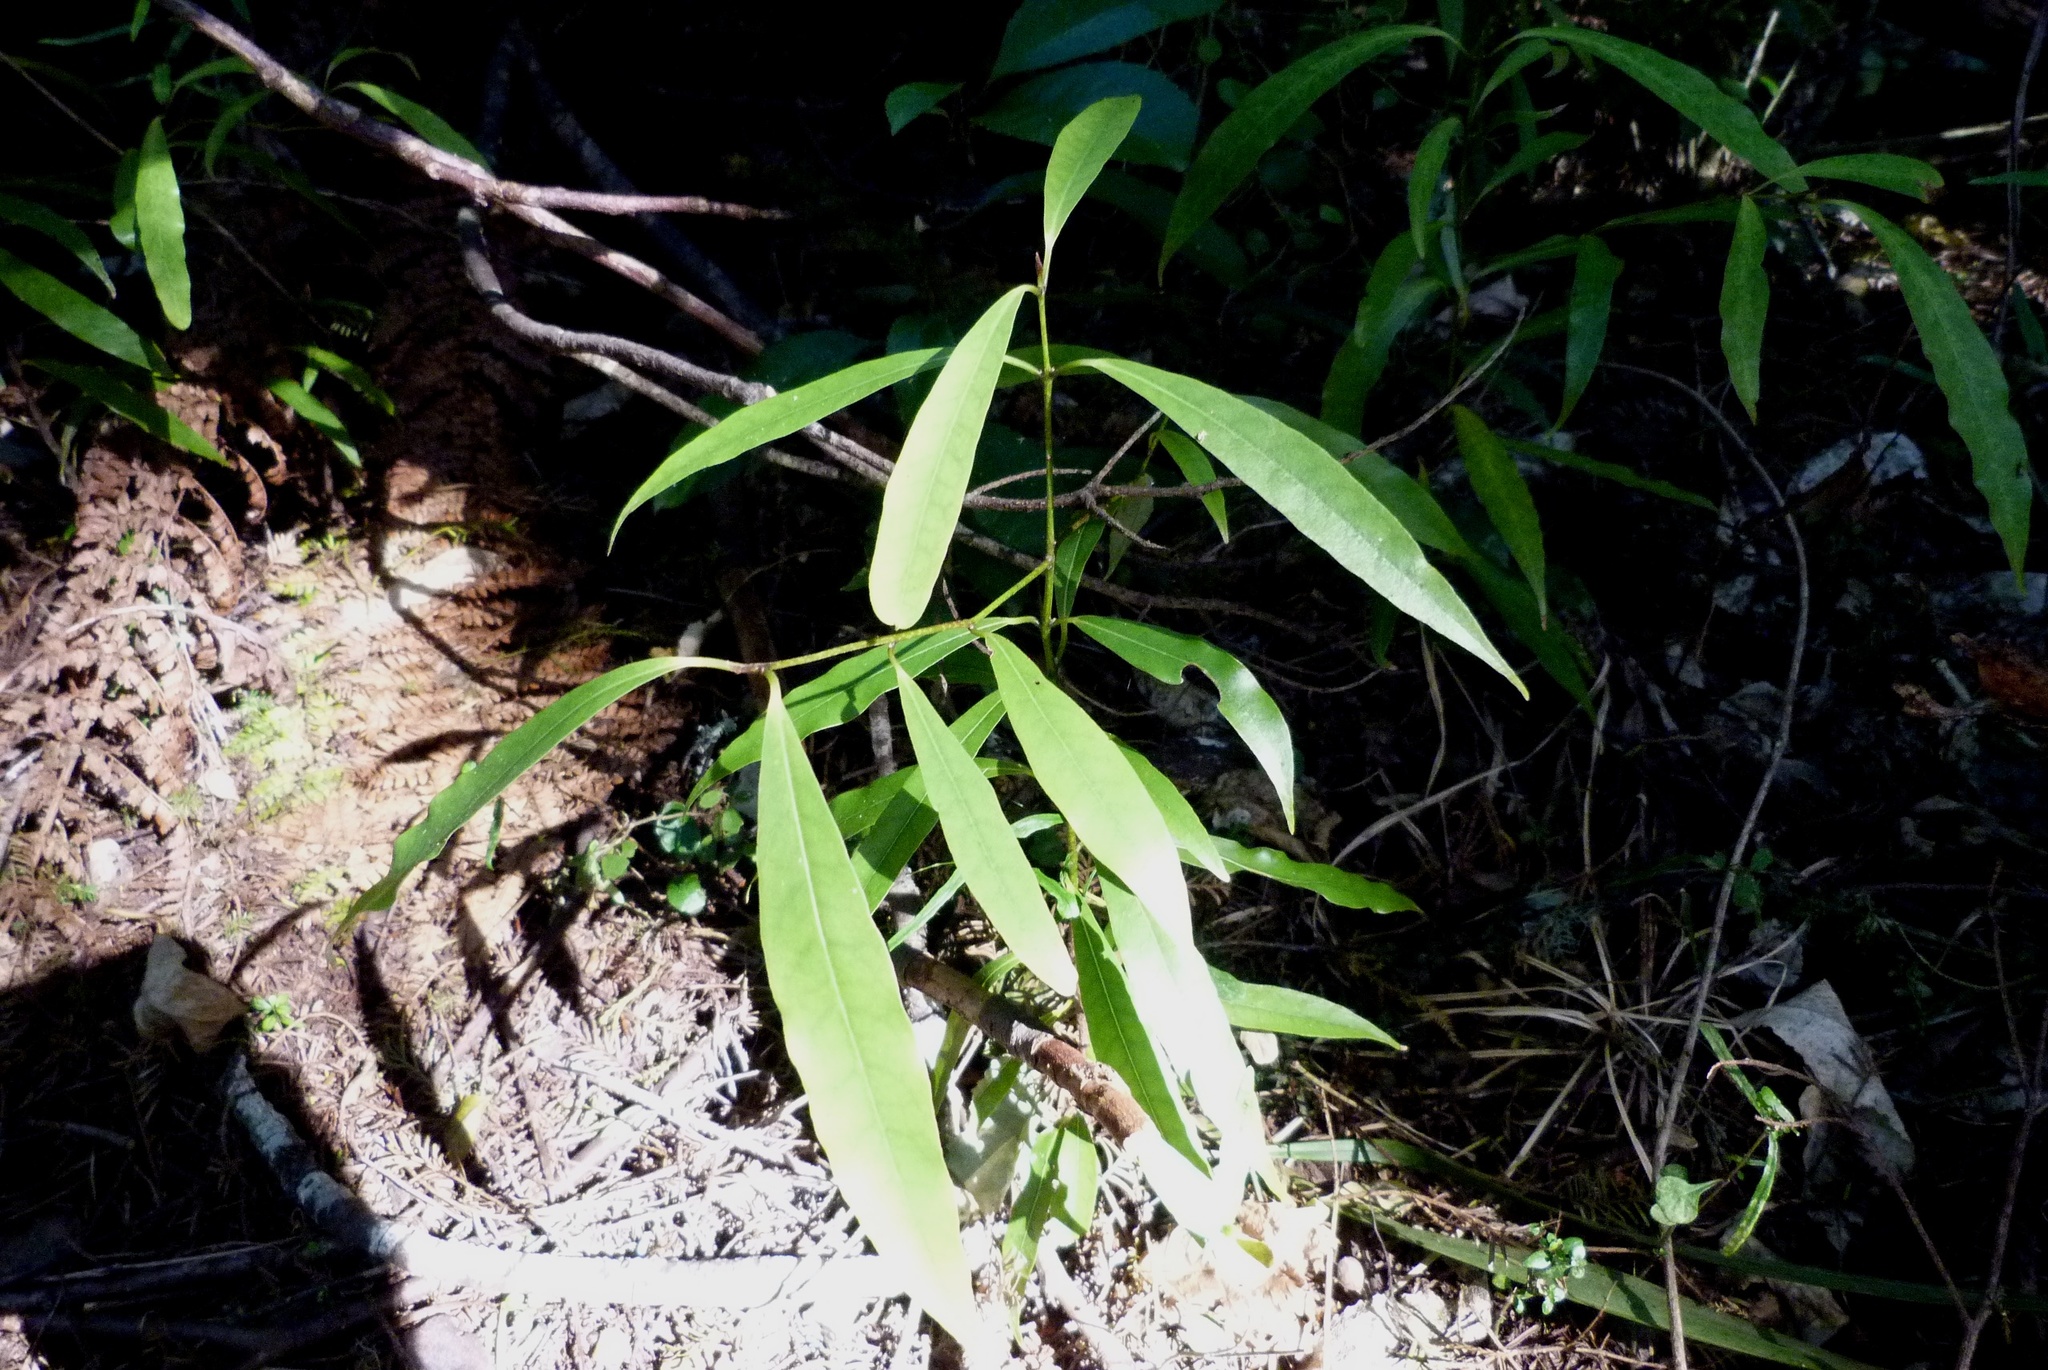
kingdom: Plantae
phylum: Tracheophyta
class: Magnoliopsida
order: Laurales
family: Lauraceae
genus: Beilschmiedia
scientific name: Beilschmiedia tawa
